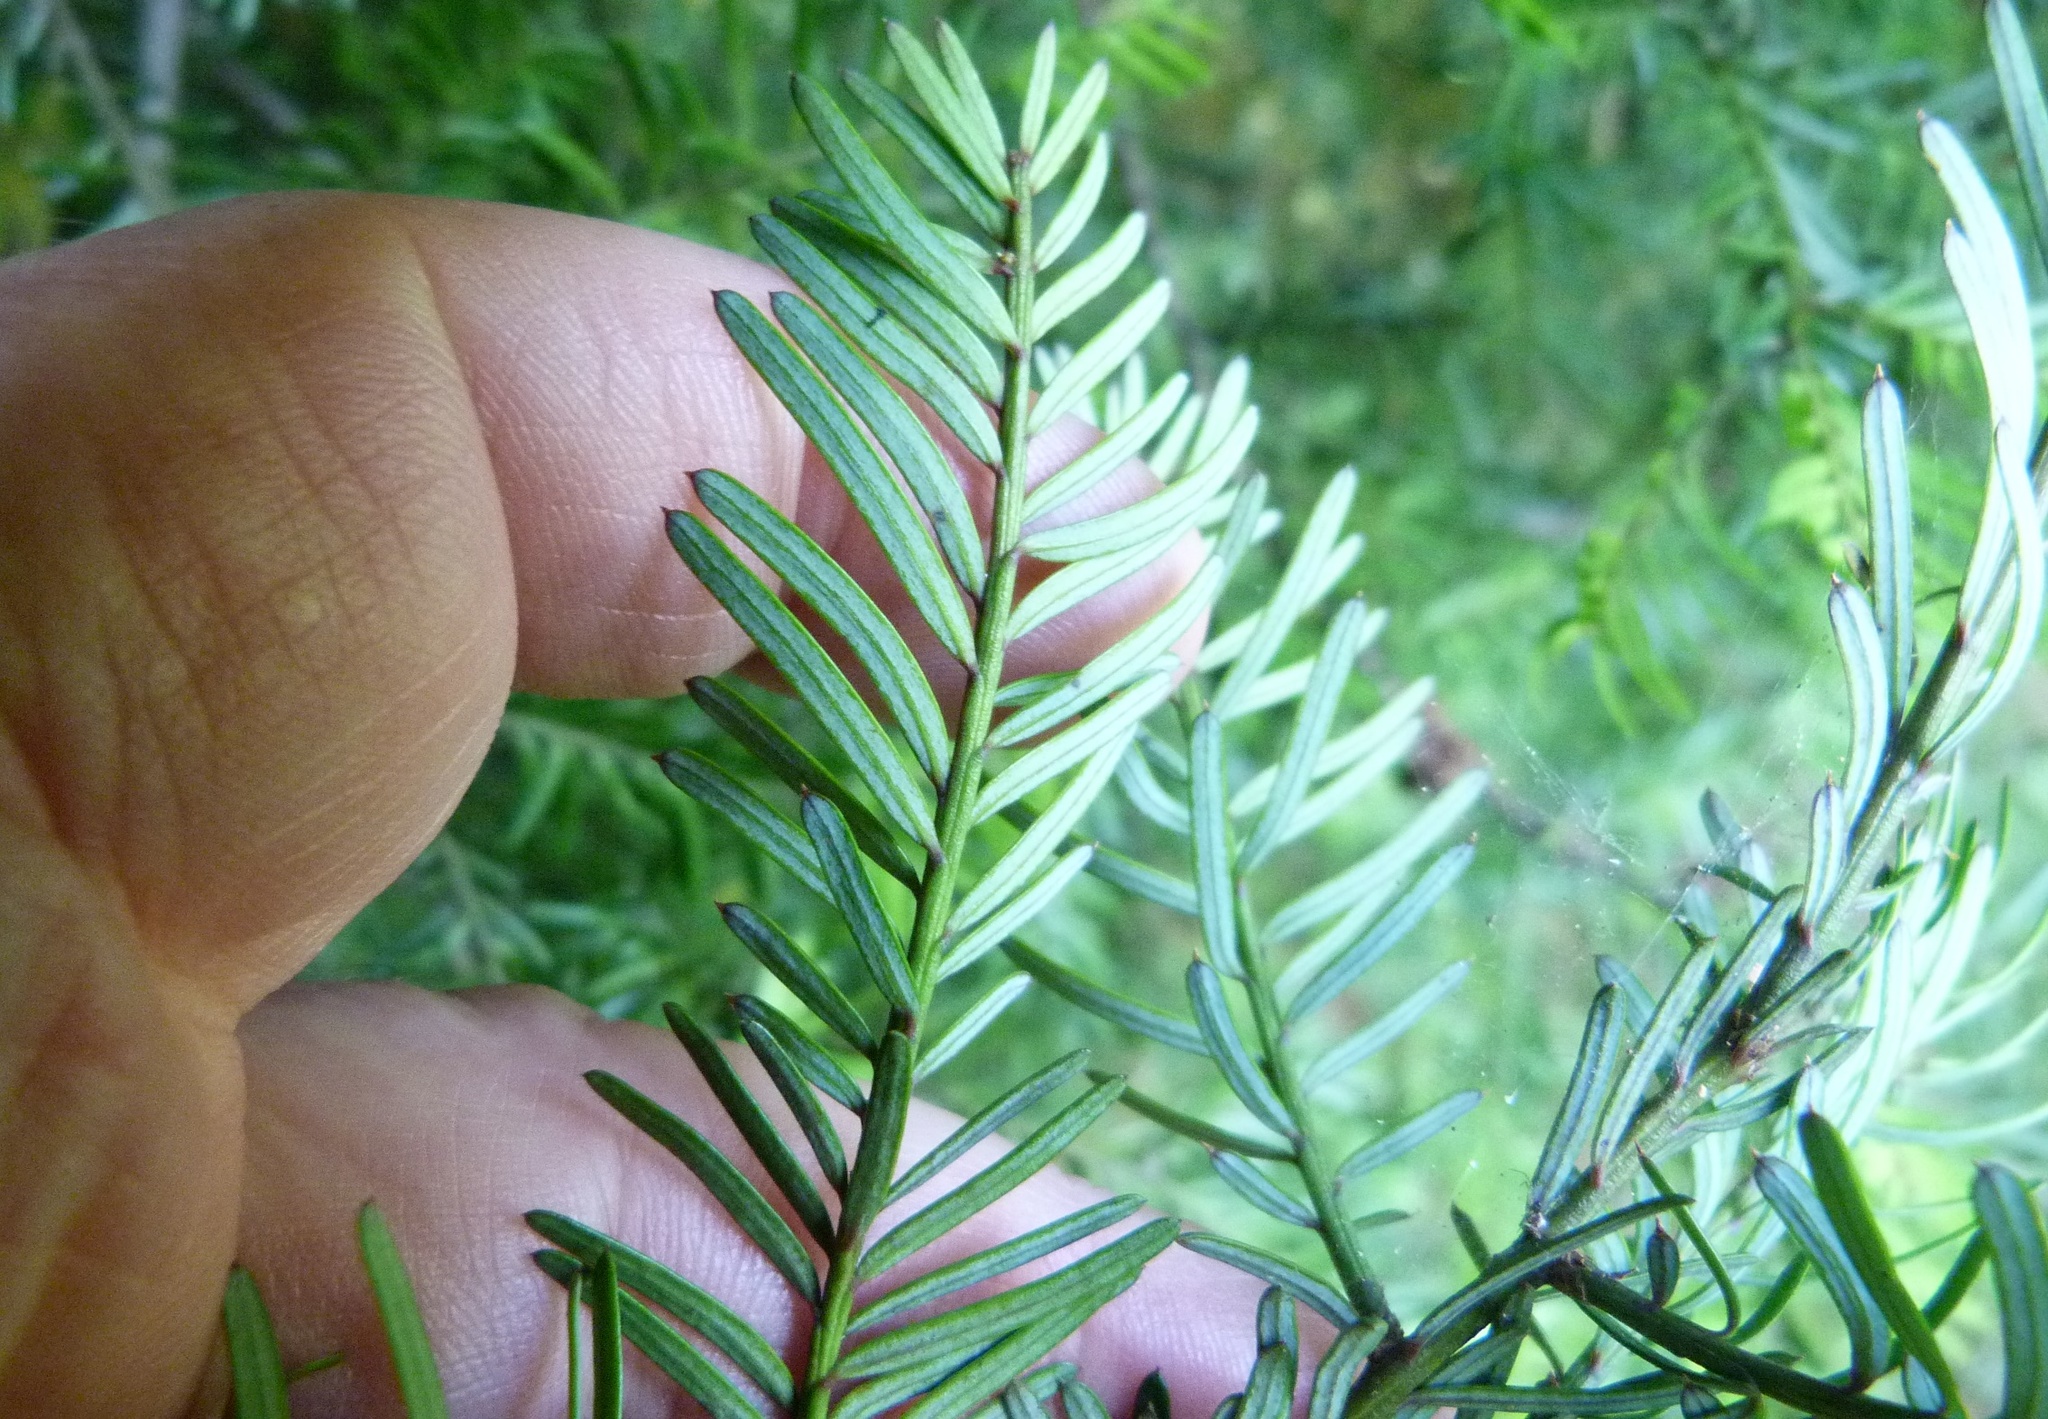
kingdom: Plantae
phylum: Tracheophyta
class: Pinopsida
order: Pinales
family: Podocarpaceae
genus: Prumnopitys
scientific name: Prumnopitys taxifolia
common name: Matai
